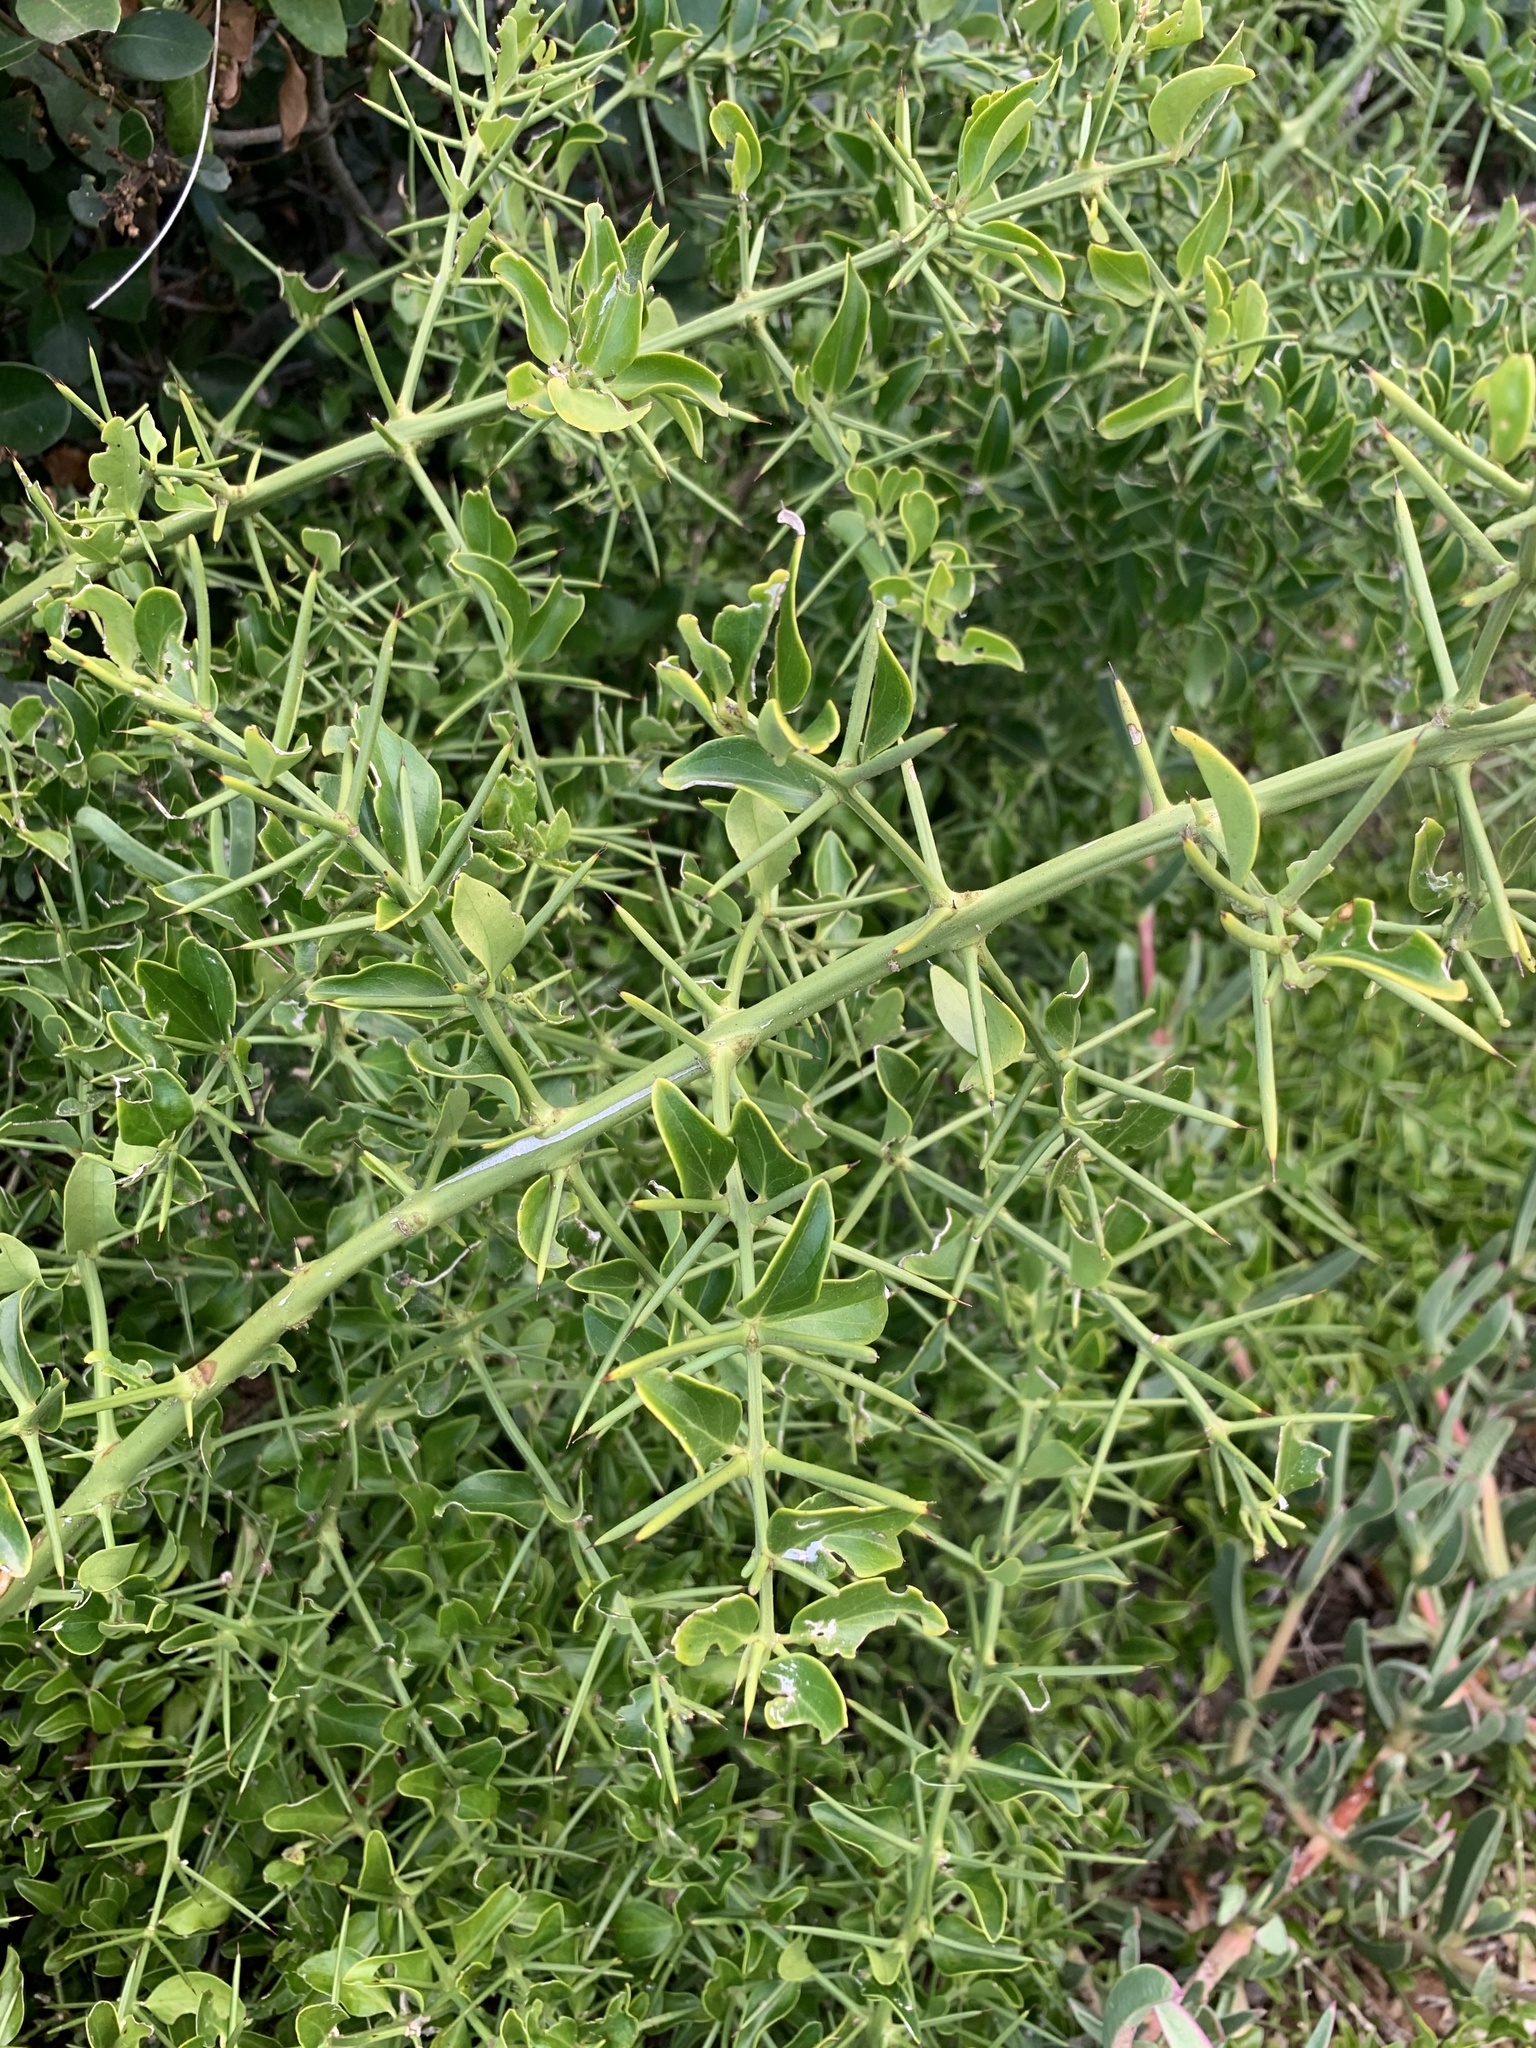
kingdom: Plantae
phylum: Tracheophyta
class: Magnoliopsida
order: Brassicales
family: Salvadoraceae
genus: Azima
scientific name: Azima tetracantha
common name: Needle bush
